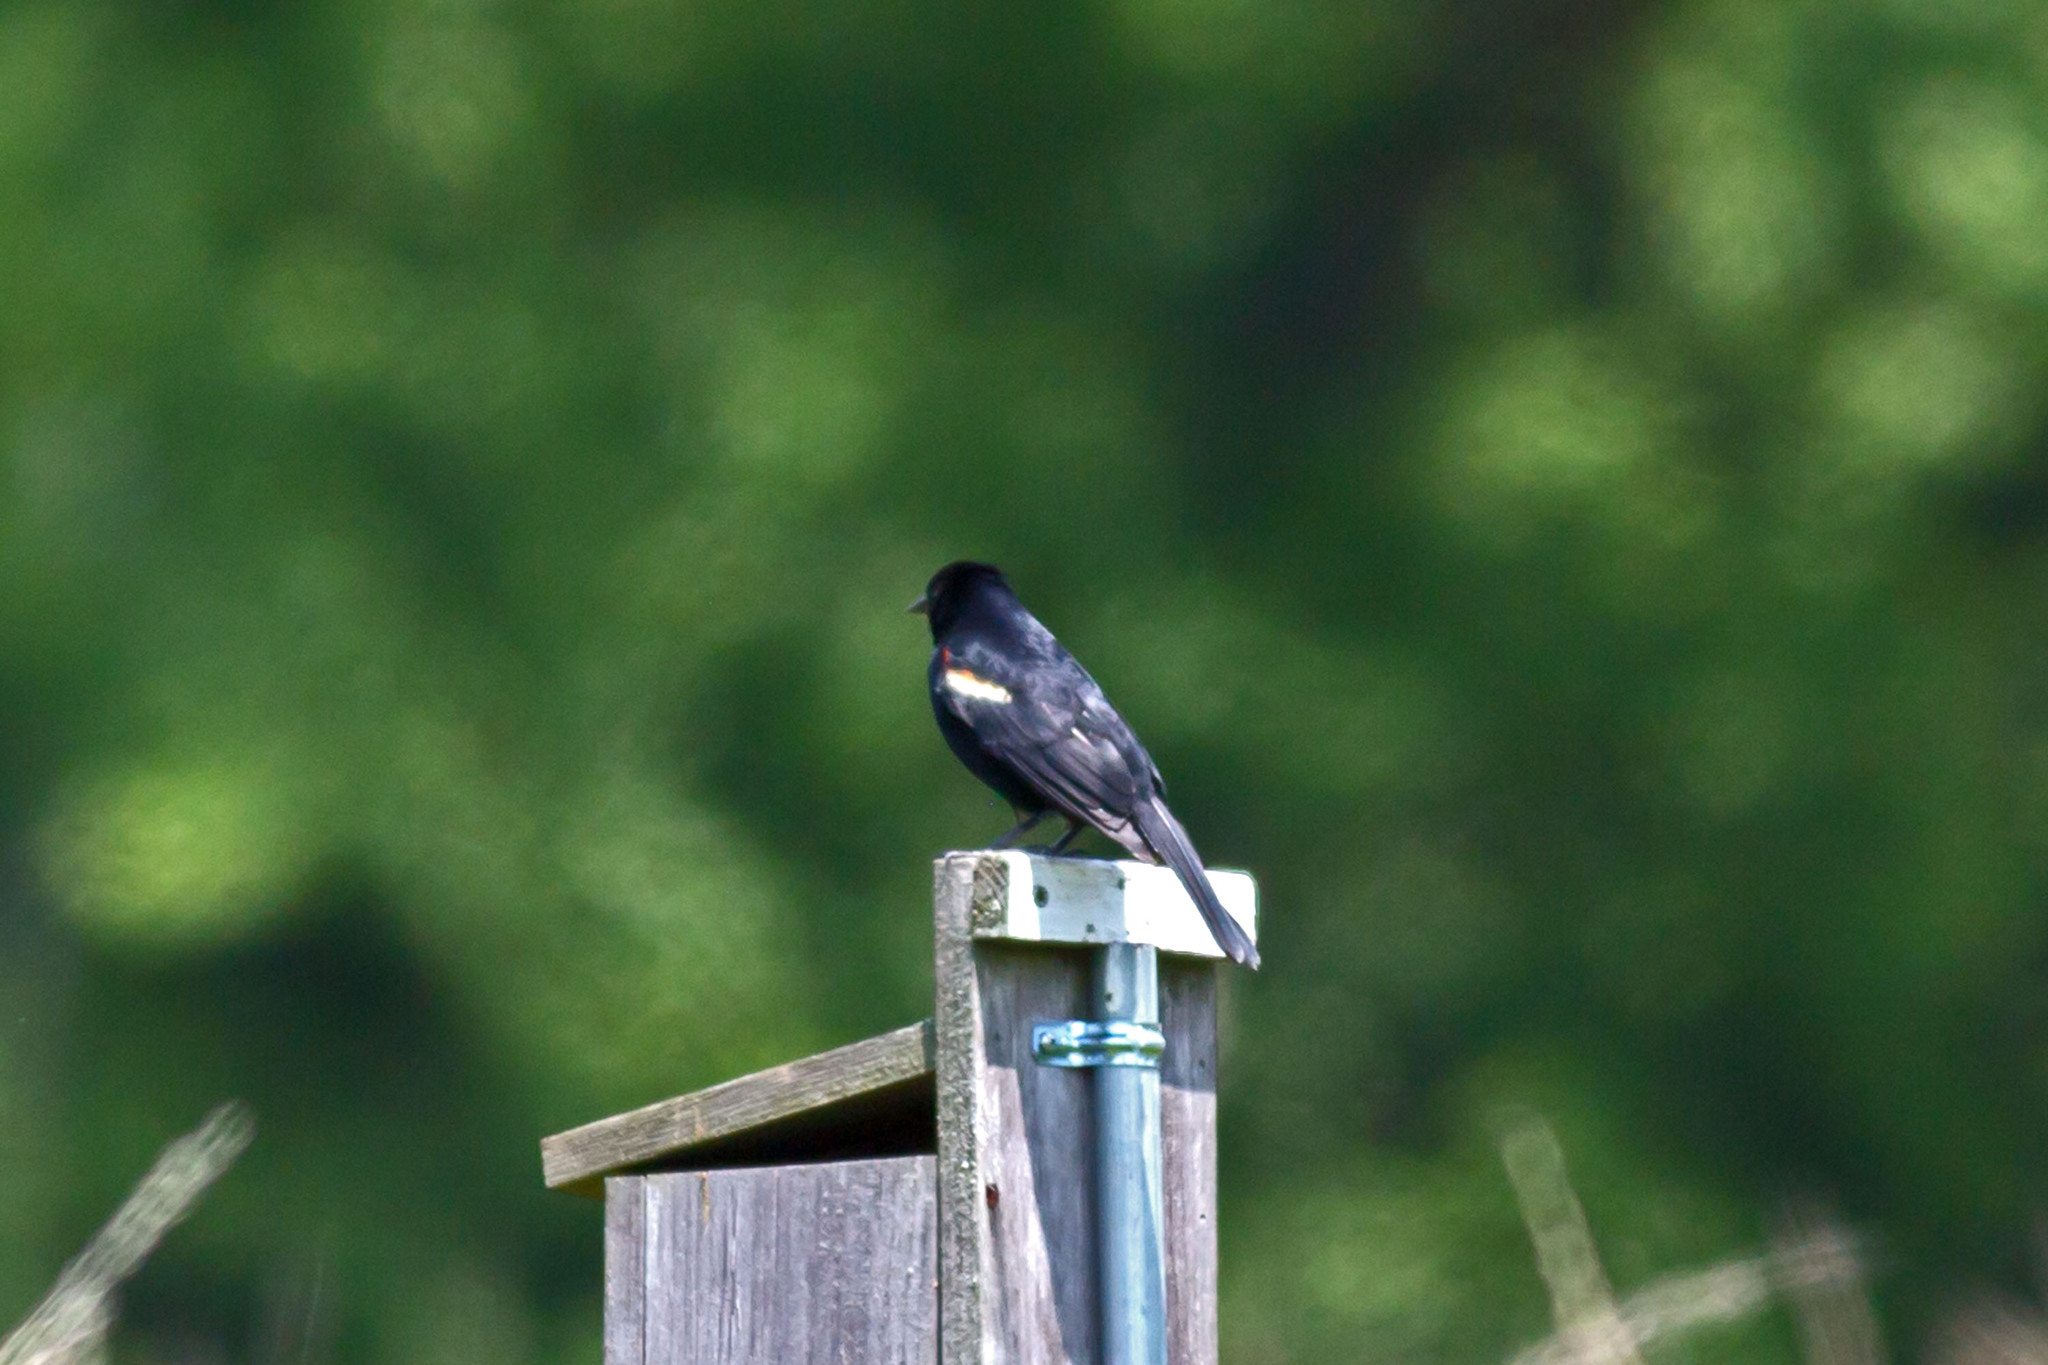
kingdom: Animalia
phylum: Chordata
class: Aves
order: Passeriformes
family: Icteridae
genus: Agelaius
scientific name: Agelaius phoeniceus
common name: Red-winged blackbird
